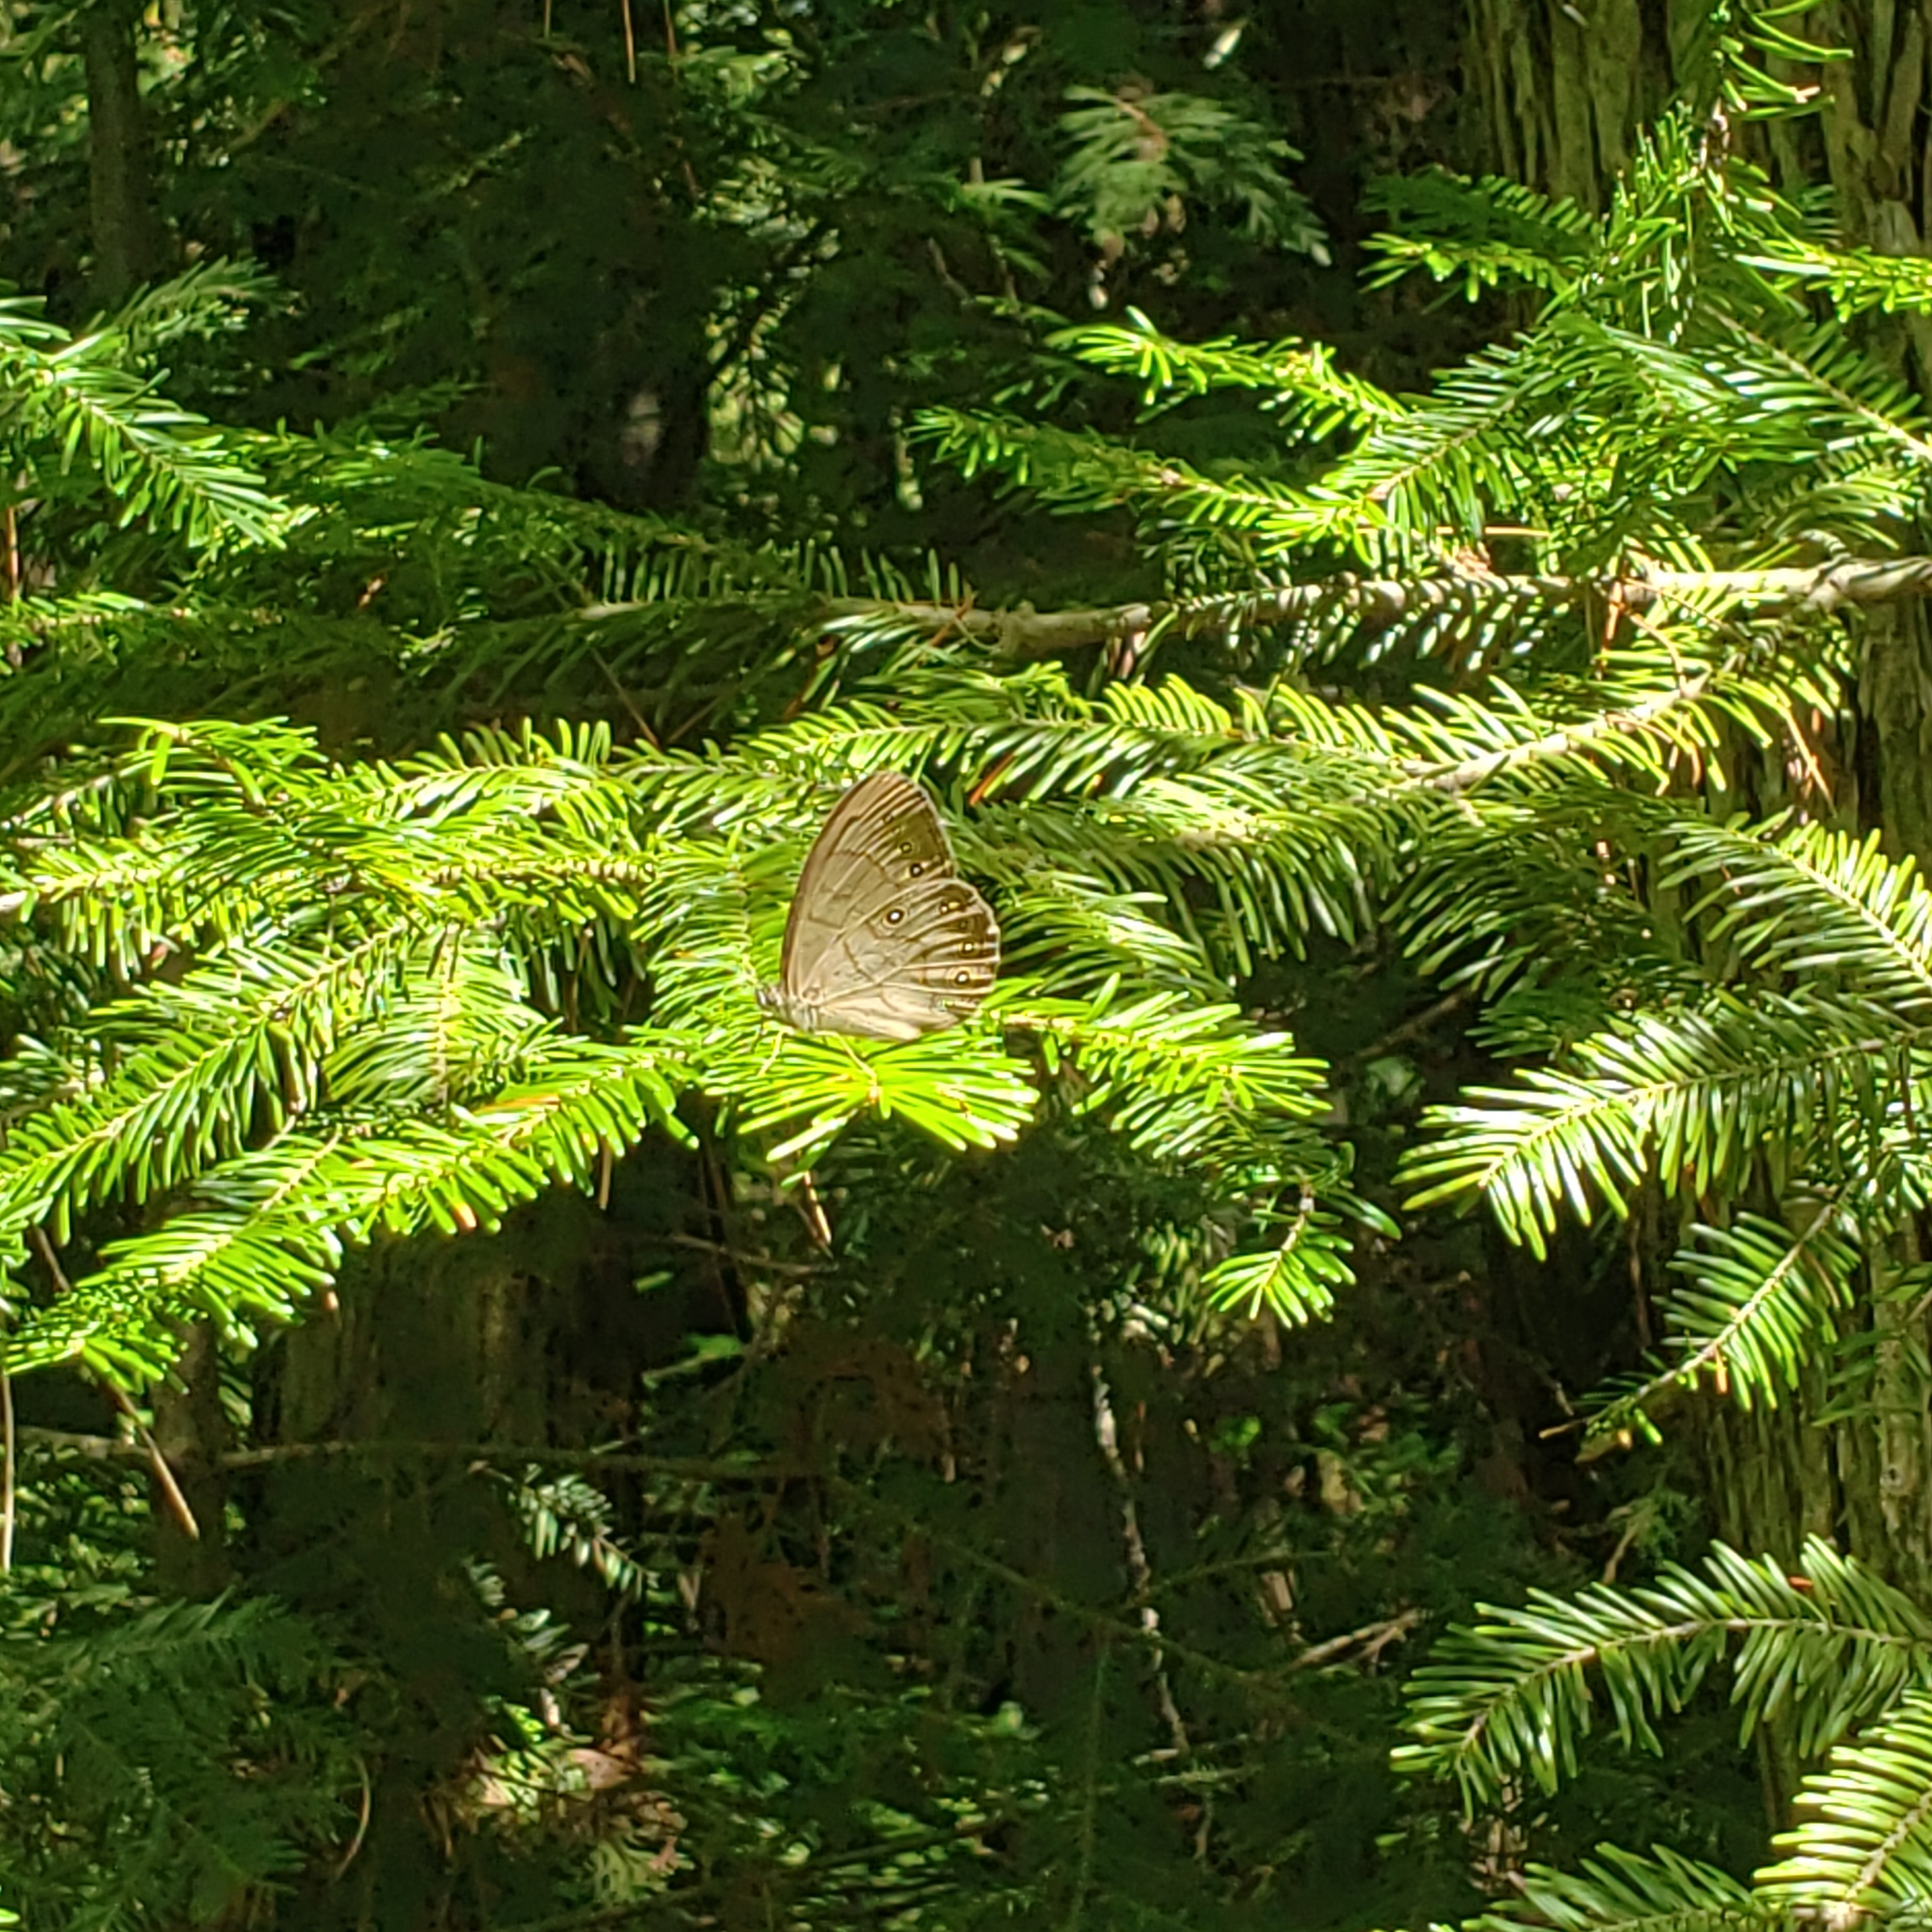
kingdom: Animalia
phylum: Arthropoda
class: Insecta
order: Lepidoptera
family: Nymphalidae
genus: Lethe
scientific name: Lethe eurydice
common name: Eyed brown
